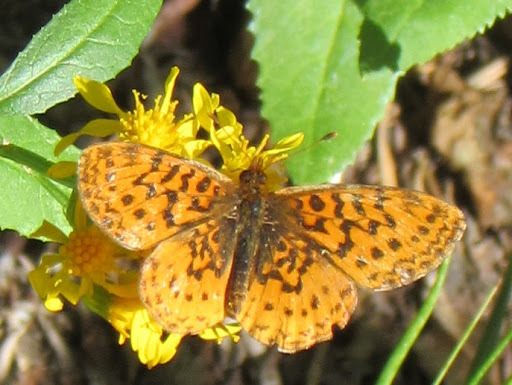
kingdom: Animalia
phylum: Arthropoda
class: Insecta
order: Lepidoptera
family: Nymphalidae
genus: Boloria
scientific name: Boloria epithore
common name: Pacific fritillary
